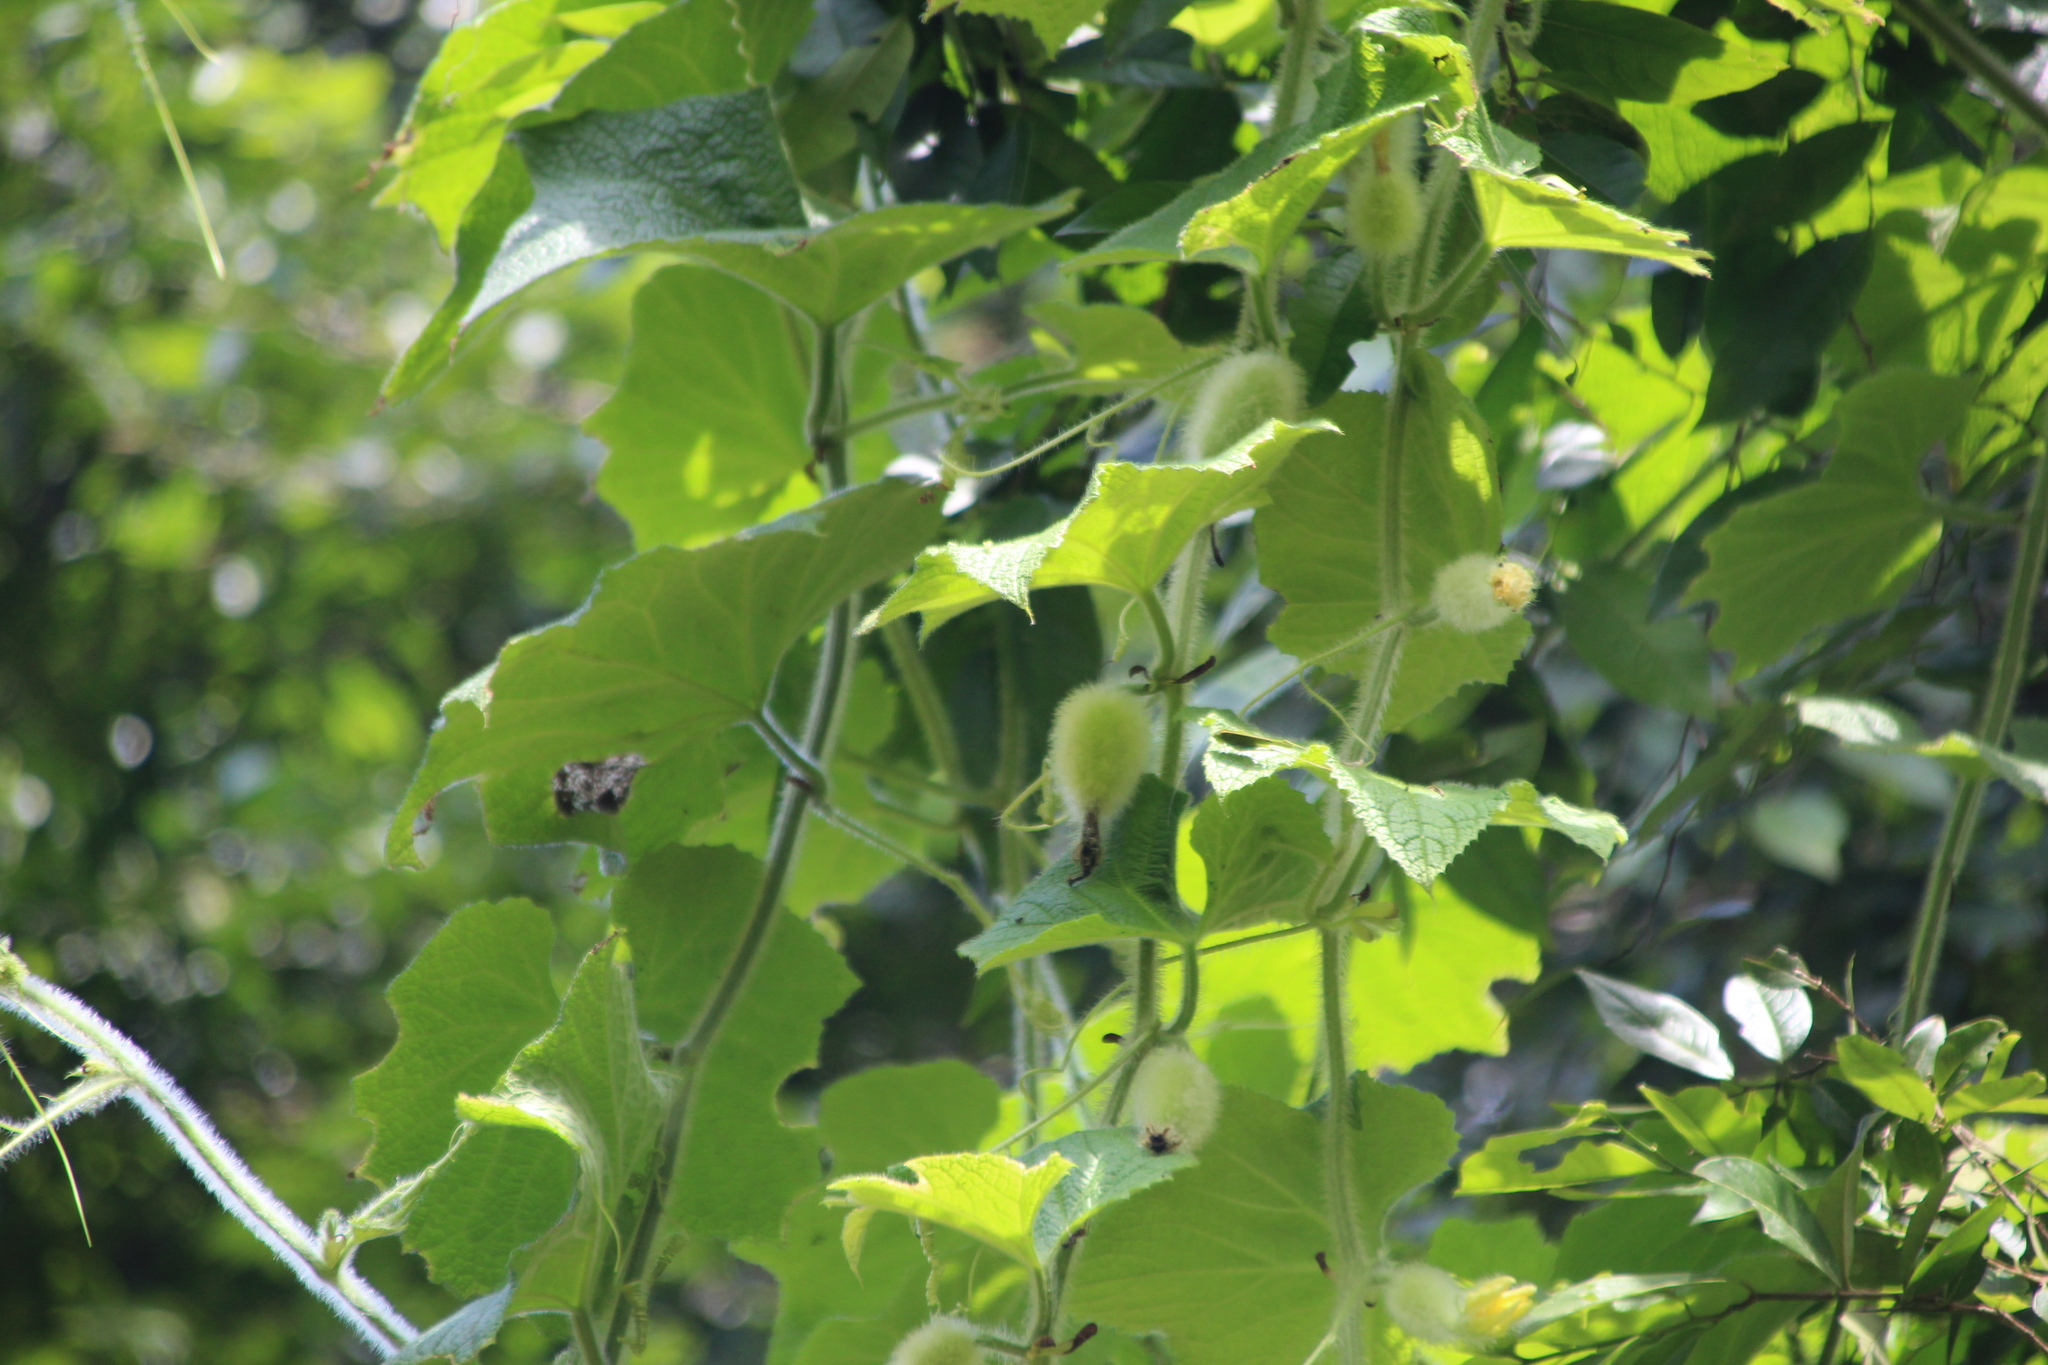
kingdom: Plantae
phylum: Tracheophyta
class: Magnoliopsida
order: Cucurbitales
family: Cucurbitaceae
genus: Peponium
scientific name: Peponium vogelii
